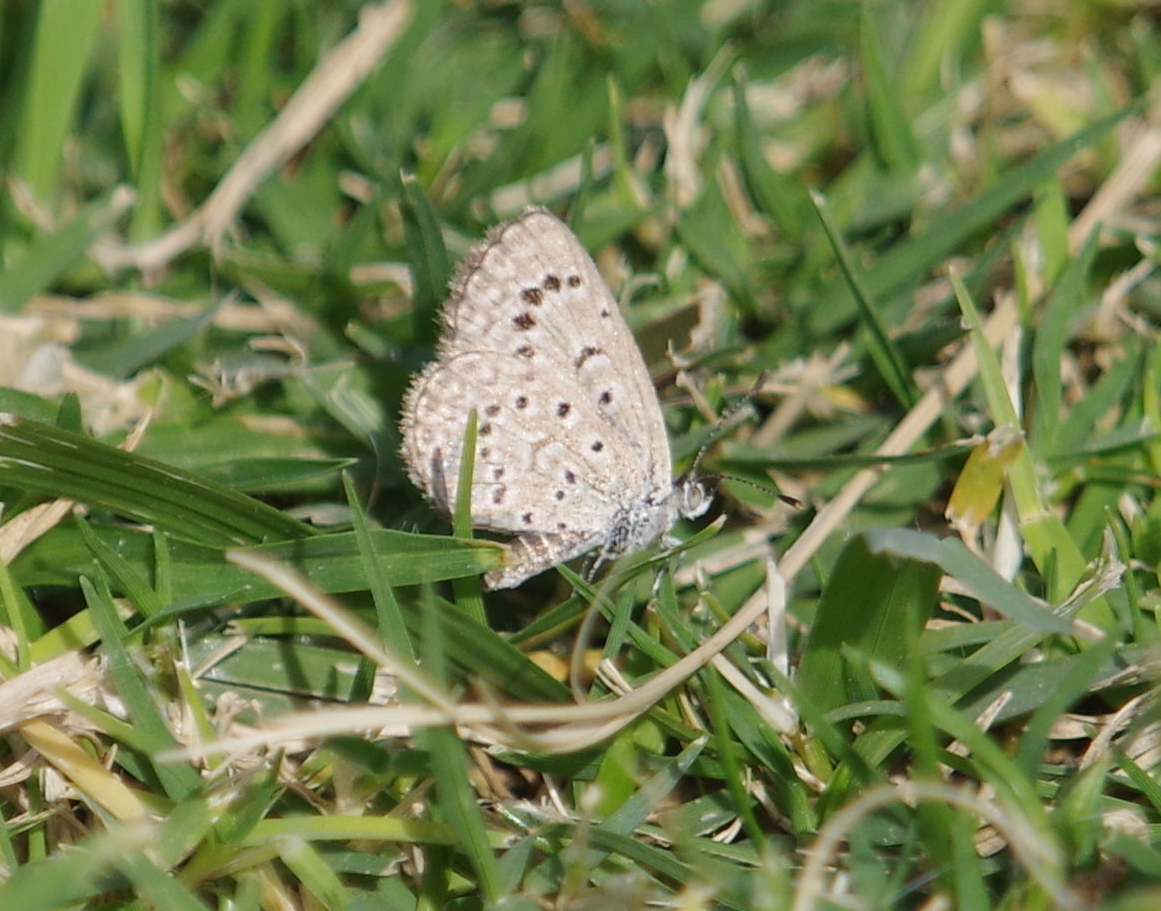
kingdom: Animalia
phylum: Arthropoda
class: Insecta
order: Lepidoptera
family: Lycaenidae
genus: Zizeeria
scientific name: Zizeeria karsandra
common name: Dark grass blue
